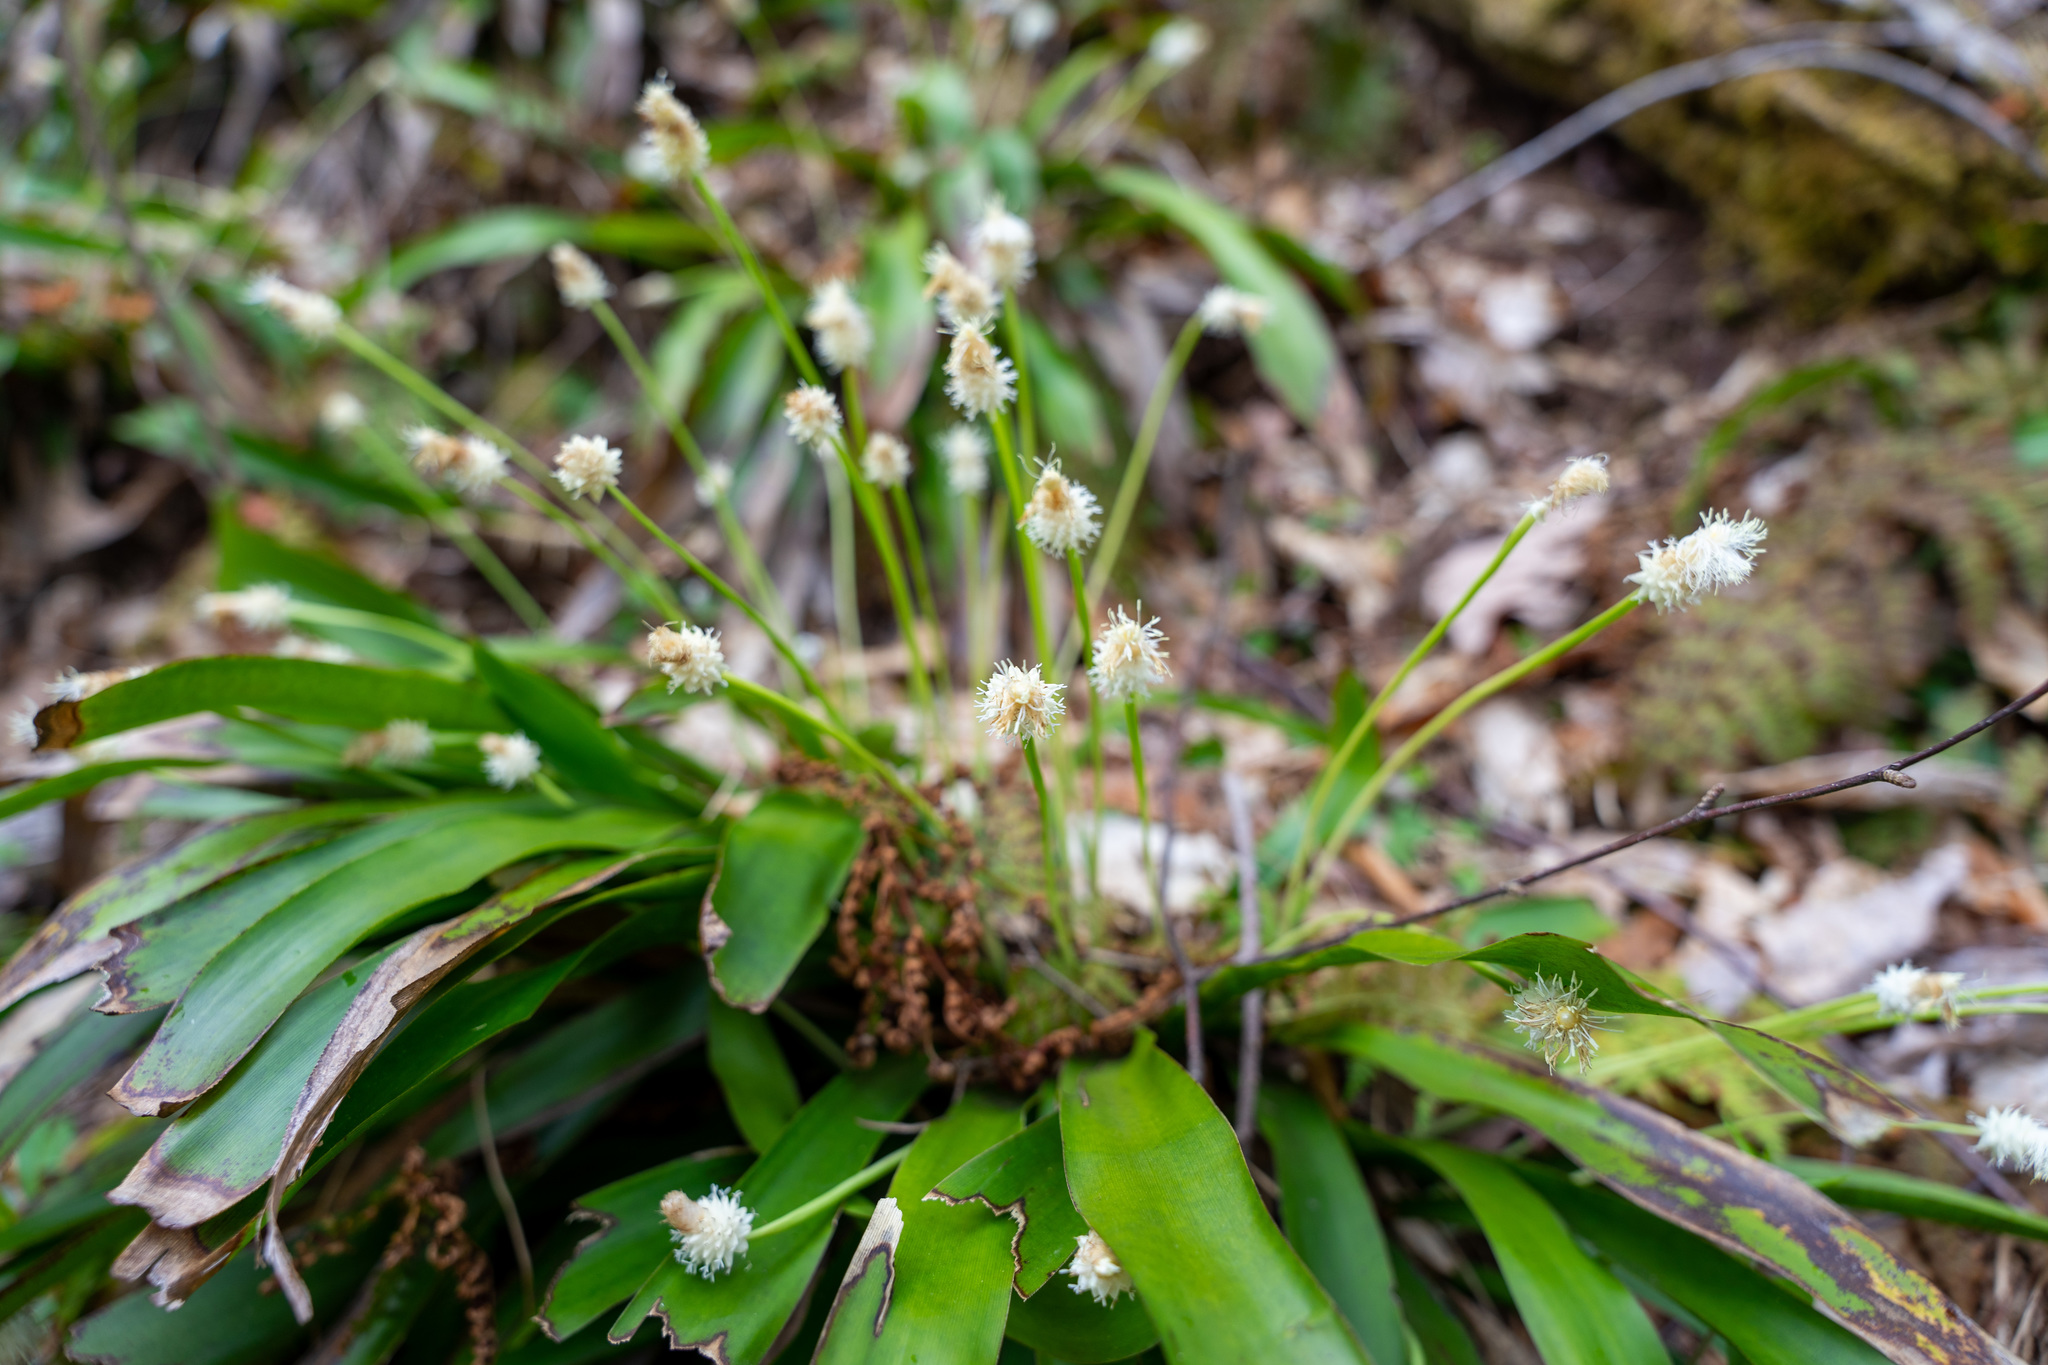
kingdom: Plantae
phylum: Tracheophyta
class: Liliopsida
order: Poales
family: Cyperaceae
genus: Carex
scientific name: Carex fraseriana
